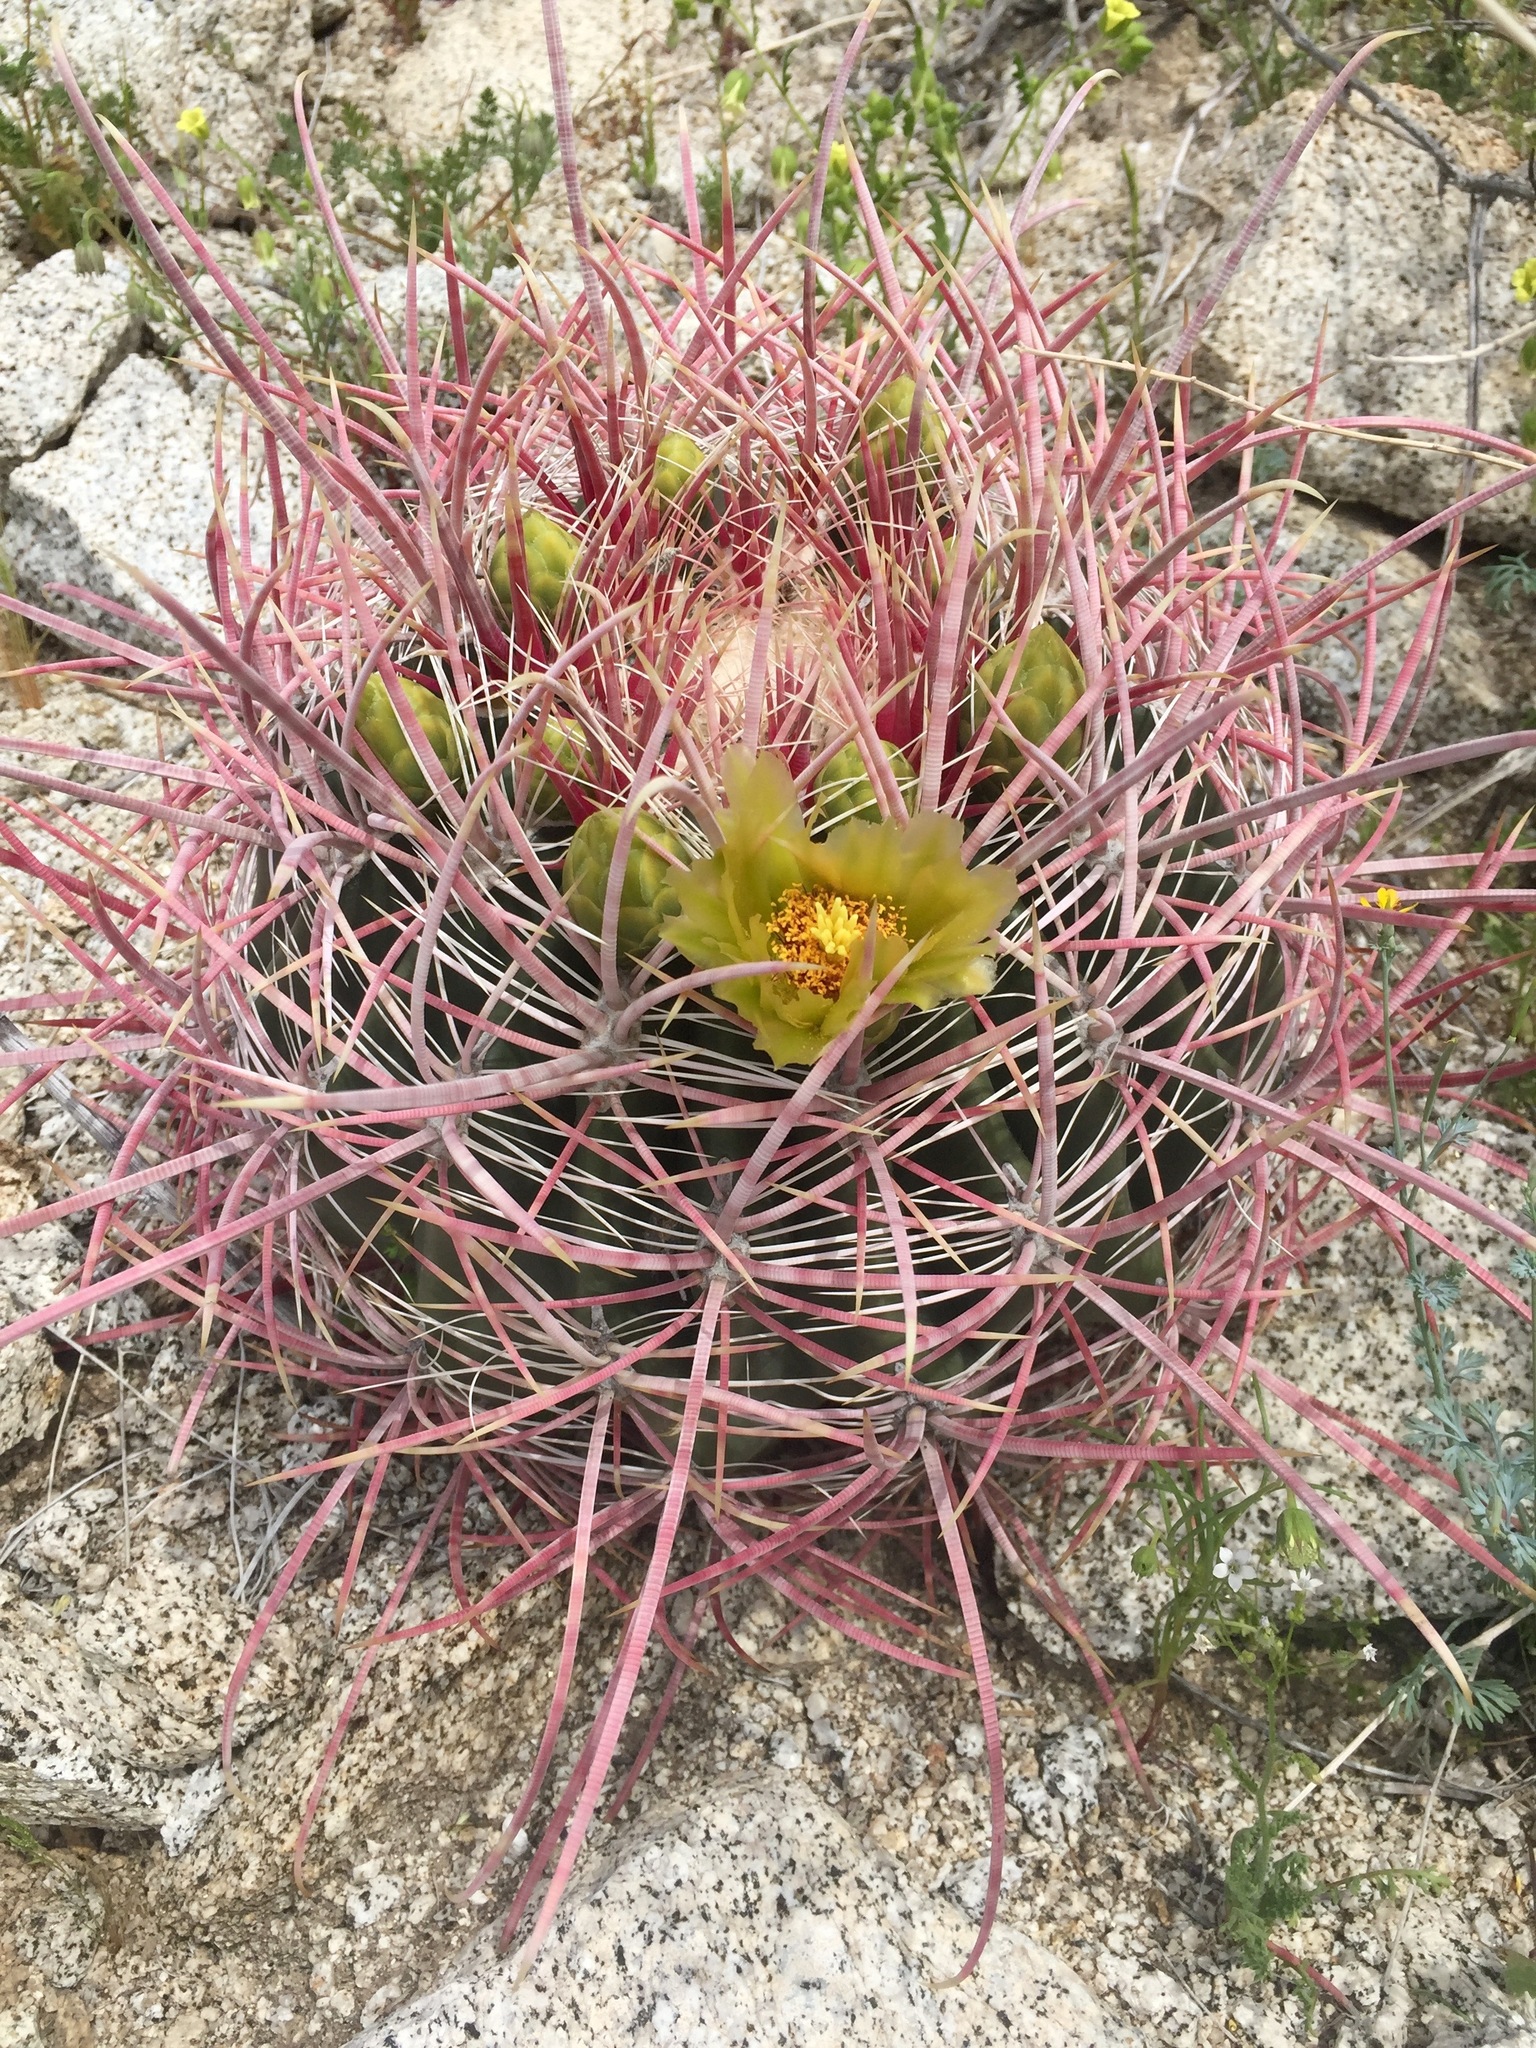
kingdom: Plantae
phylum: Tracheophyta
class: Magnoliopsida
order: Caryophyllales
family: Cactaceae
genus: Ferocactus
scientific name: Ferocactus cylindraceus
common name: California barrel cactus
